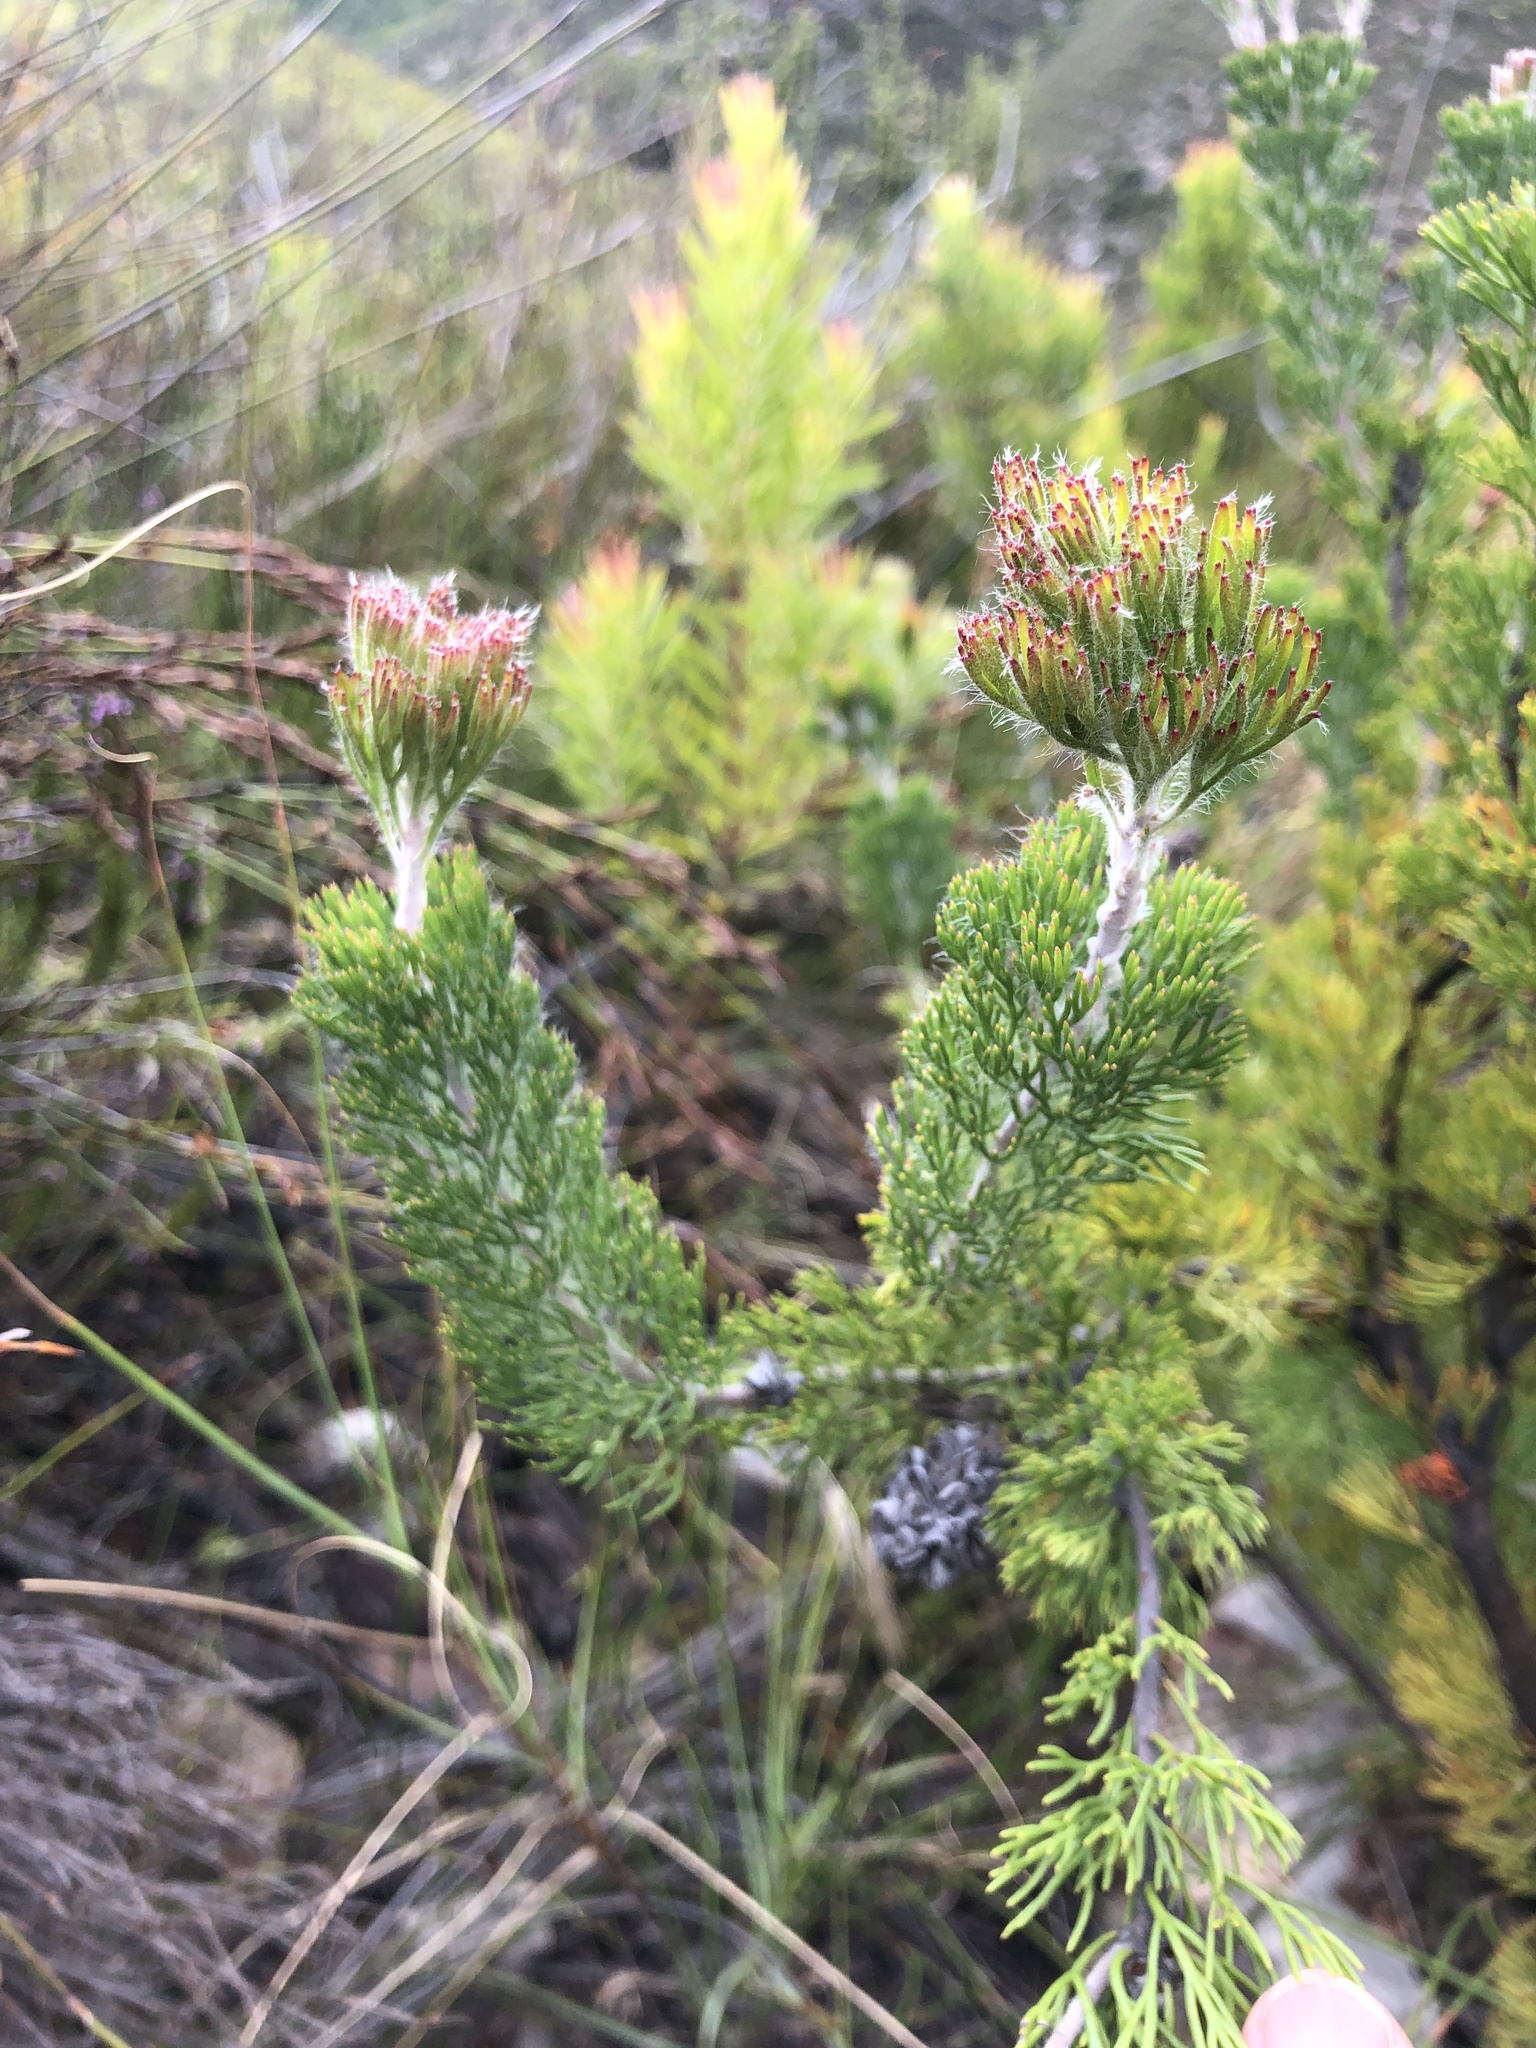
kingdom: Plantae
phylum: Tracheophyta
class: Magnoliopsida
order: Proteales
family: Proteaceae
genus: Serruria
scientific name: Serruria
